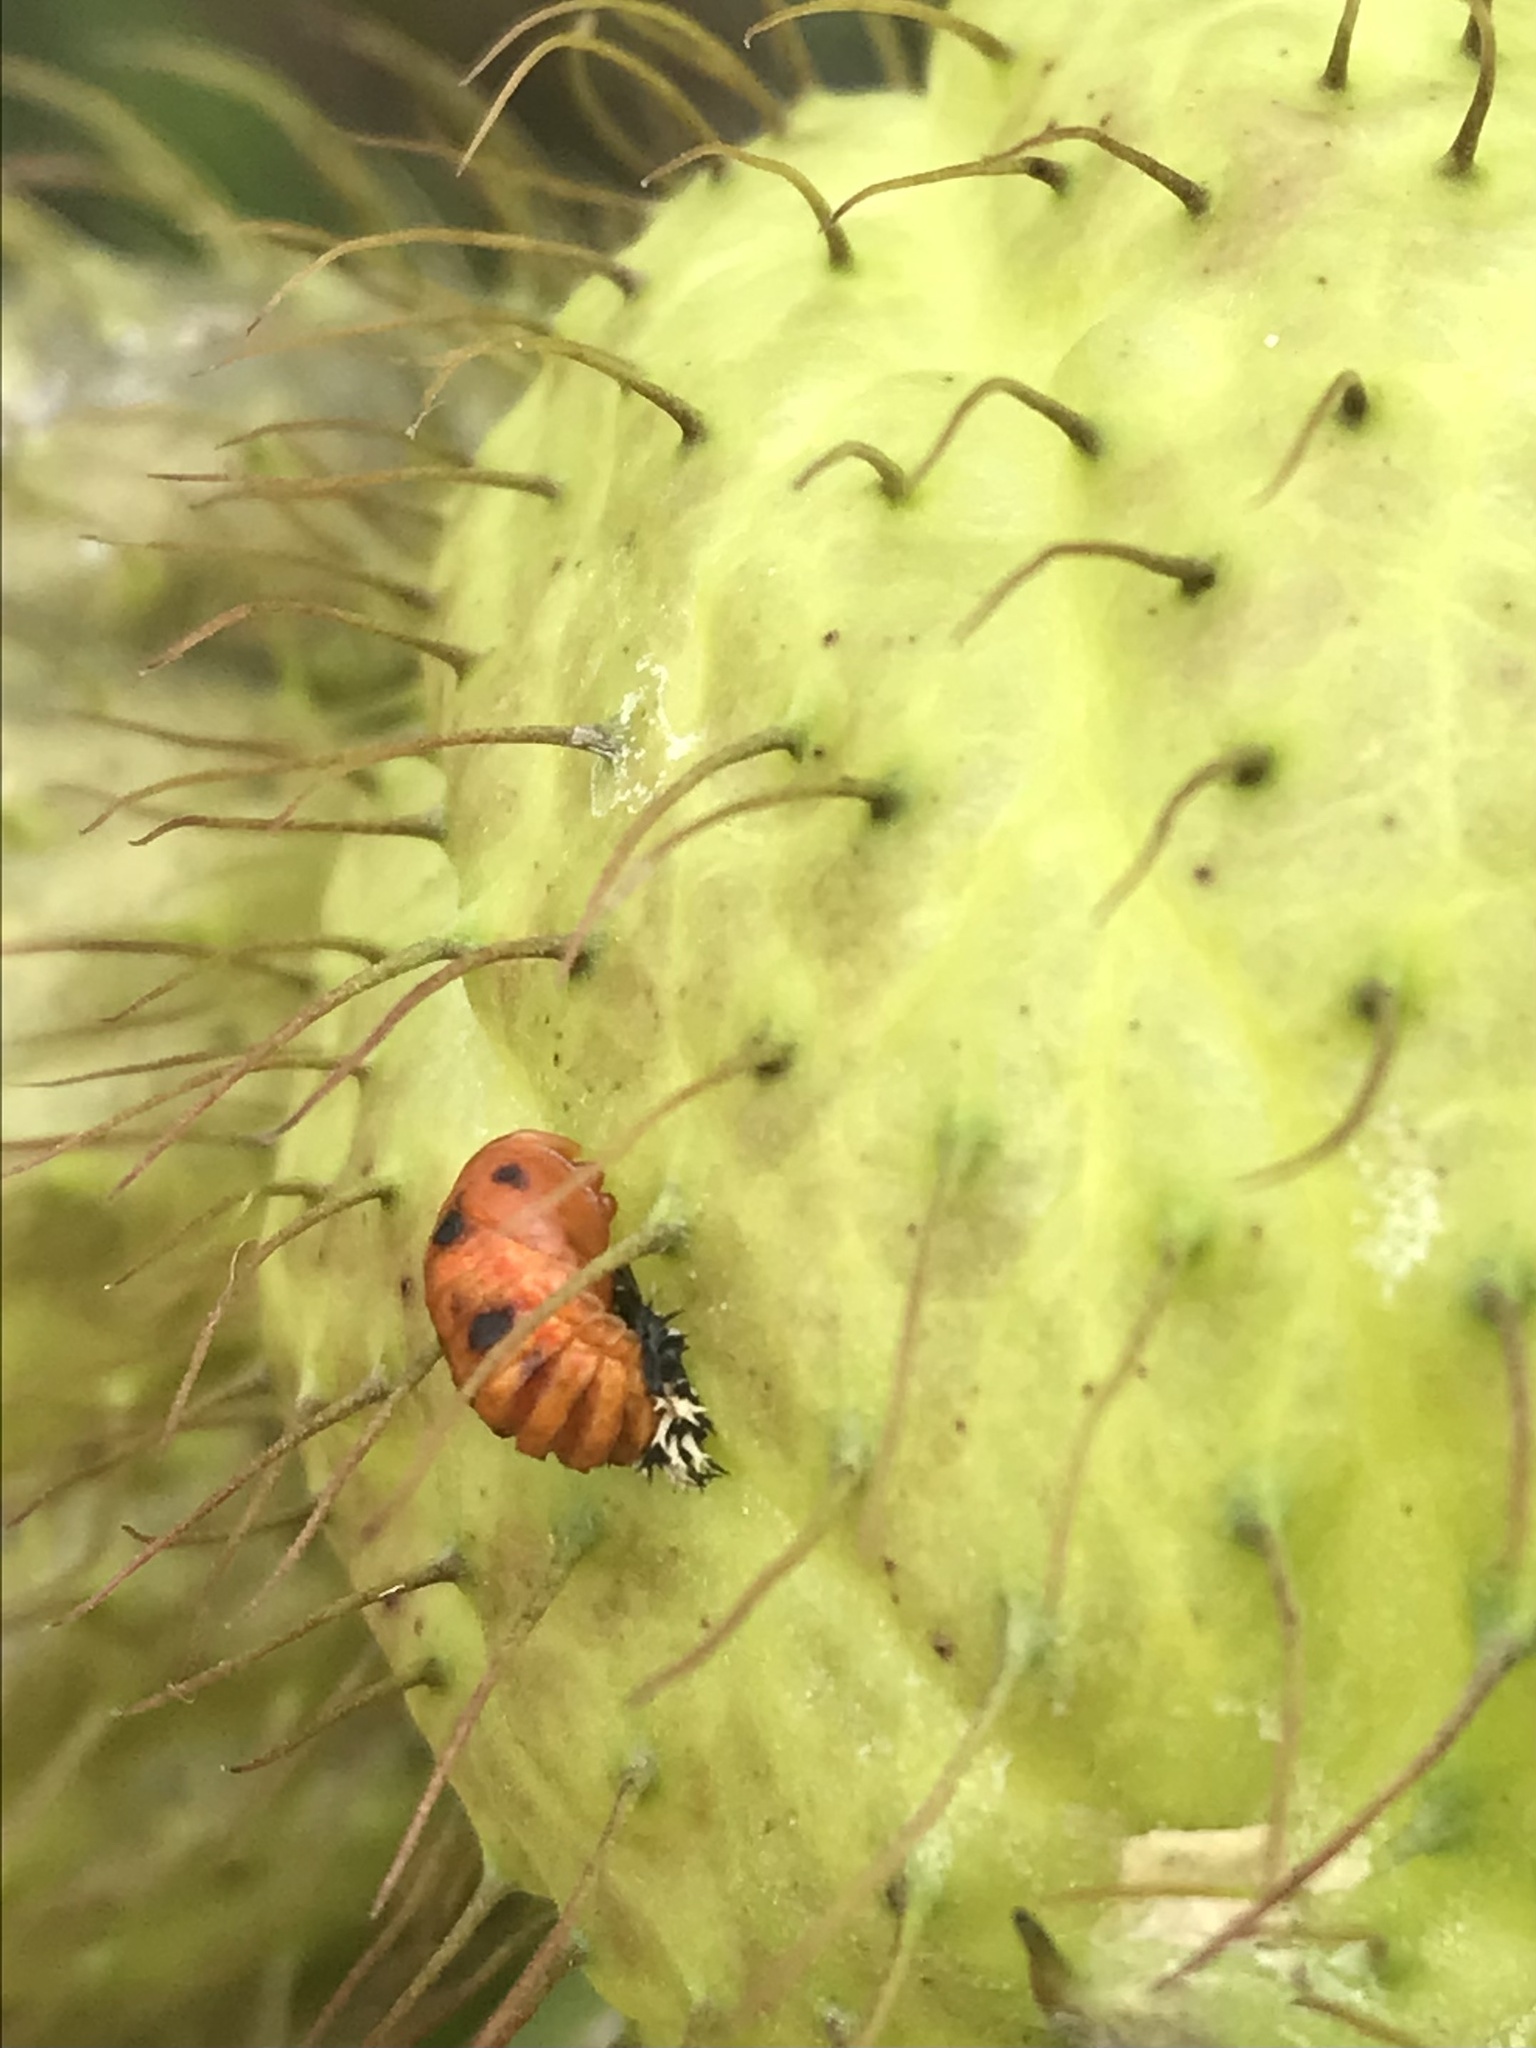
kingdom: Animalia
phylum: Arthropoda
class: Insecta
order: Coleoptera
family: Coccinellidae
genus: Harmonia
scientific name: Harmonia axyridis
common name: Harlequin ladybird
